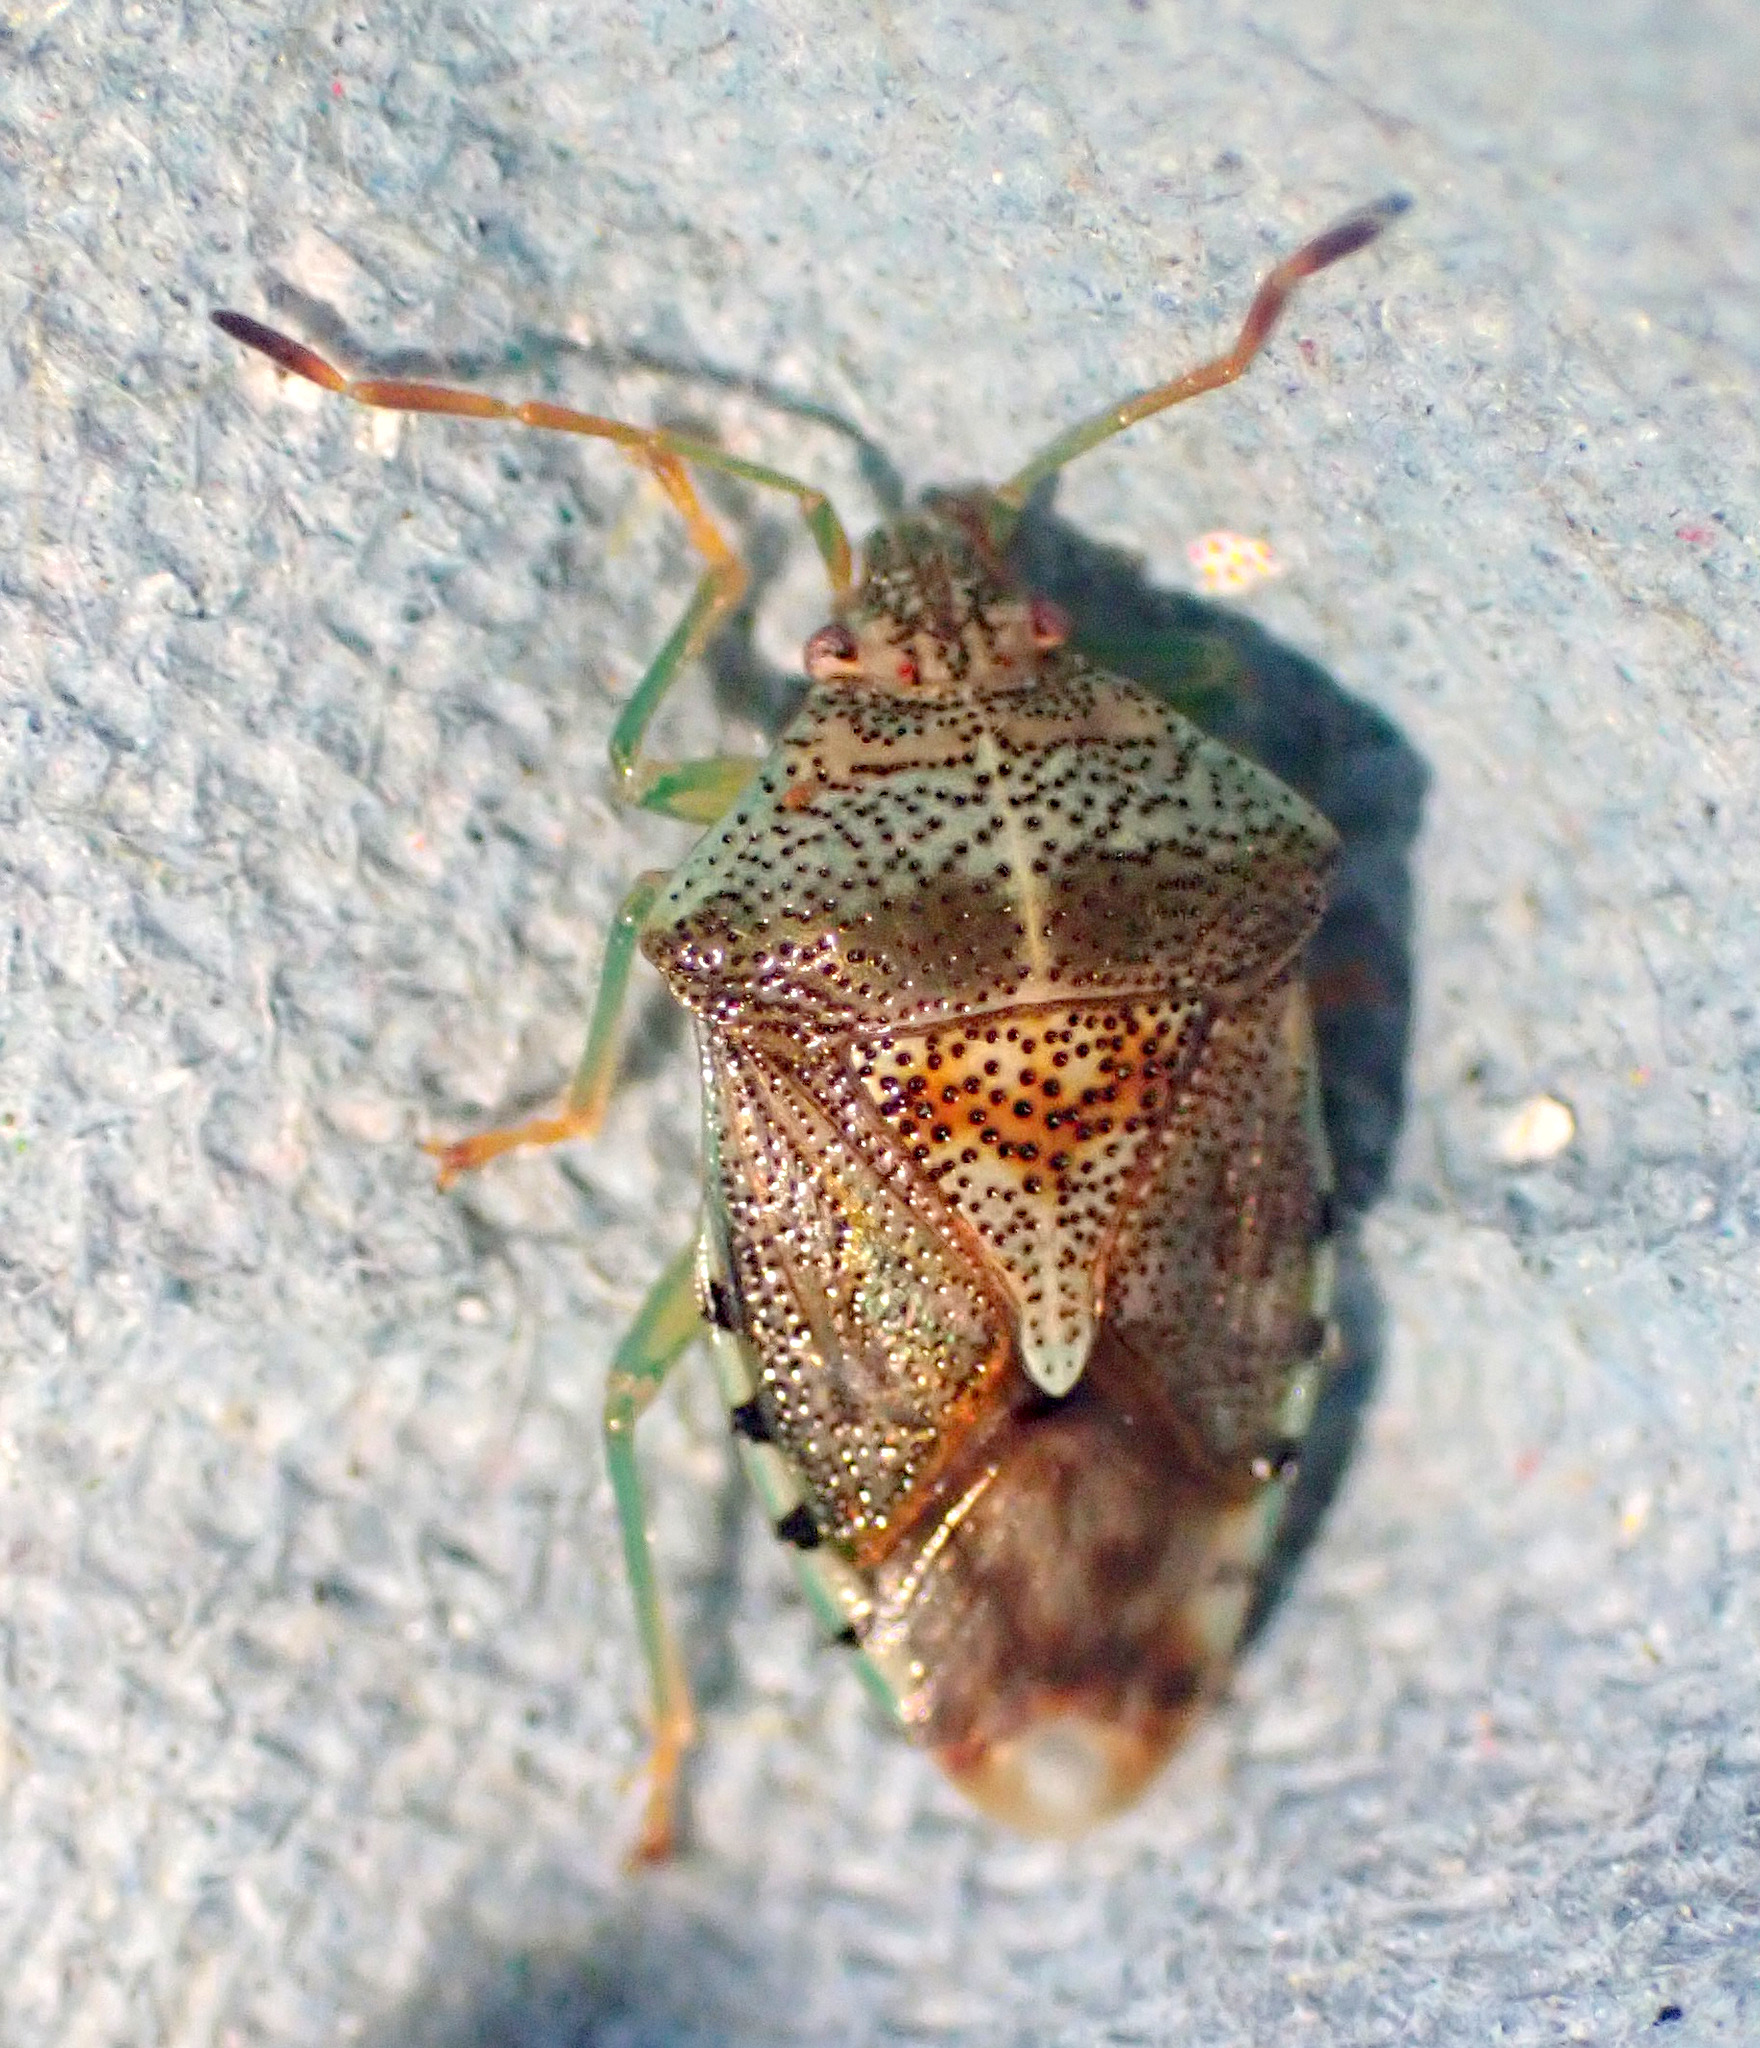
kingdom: Animalia
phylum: Arthropoda
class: Insecta
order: Hemiptera
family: Acanthosomatidae
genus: Elasmucha
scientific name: Elasmucha grisea
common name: Parent bug
